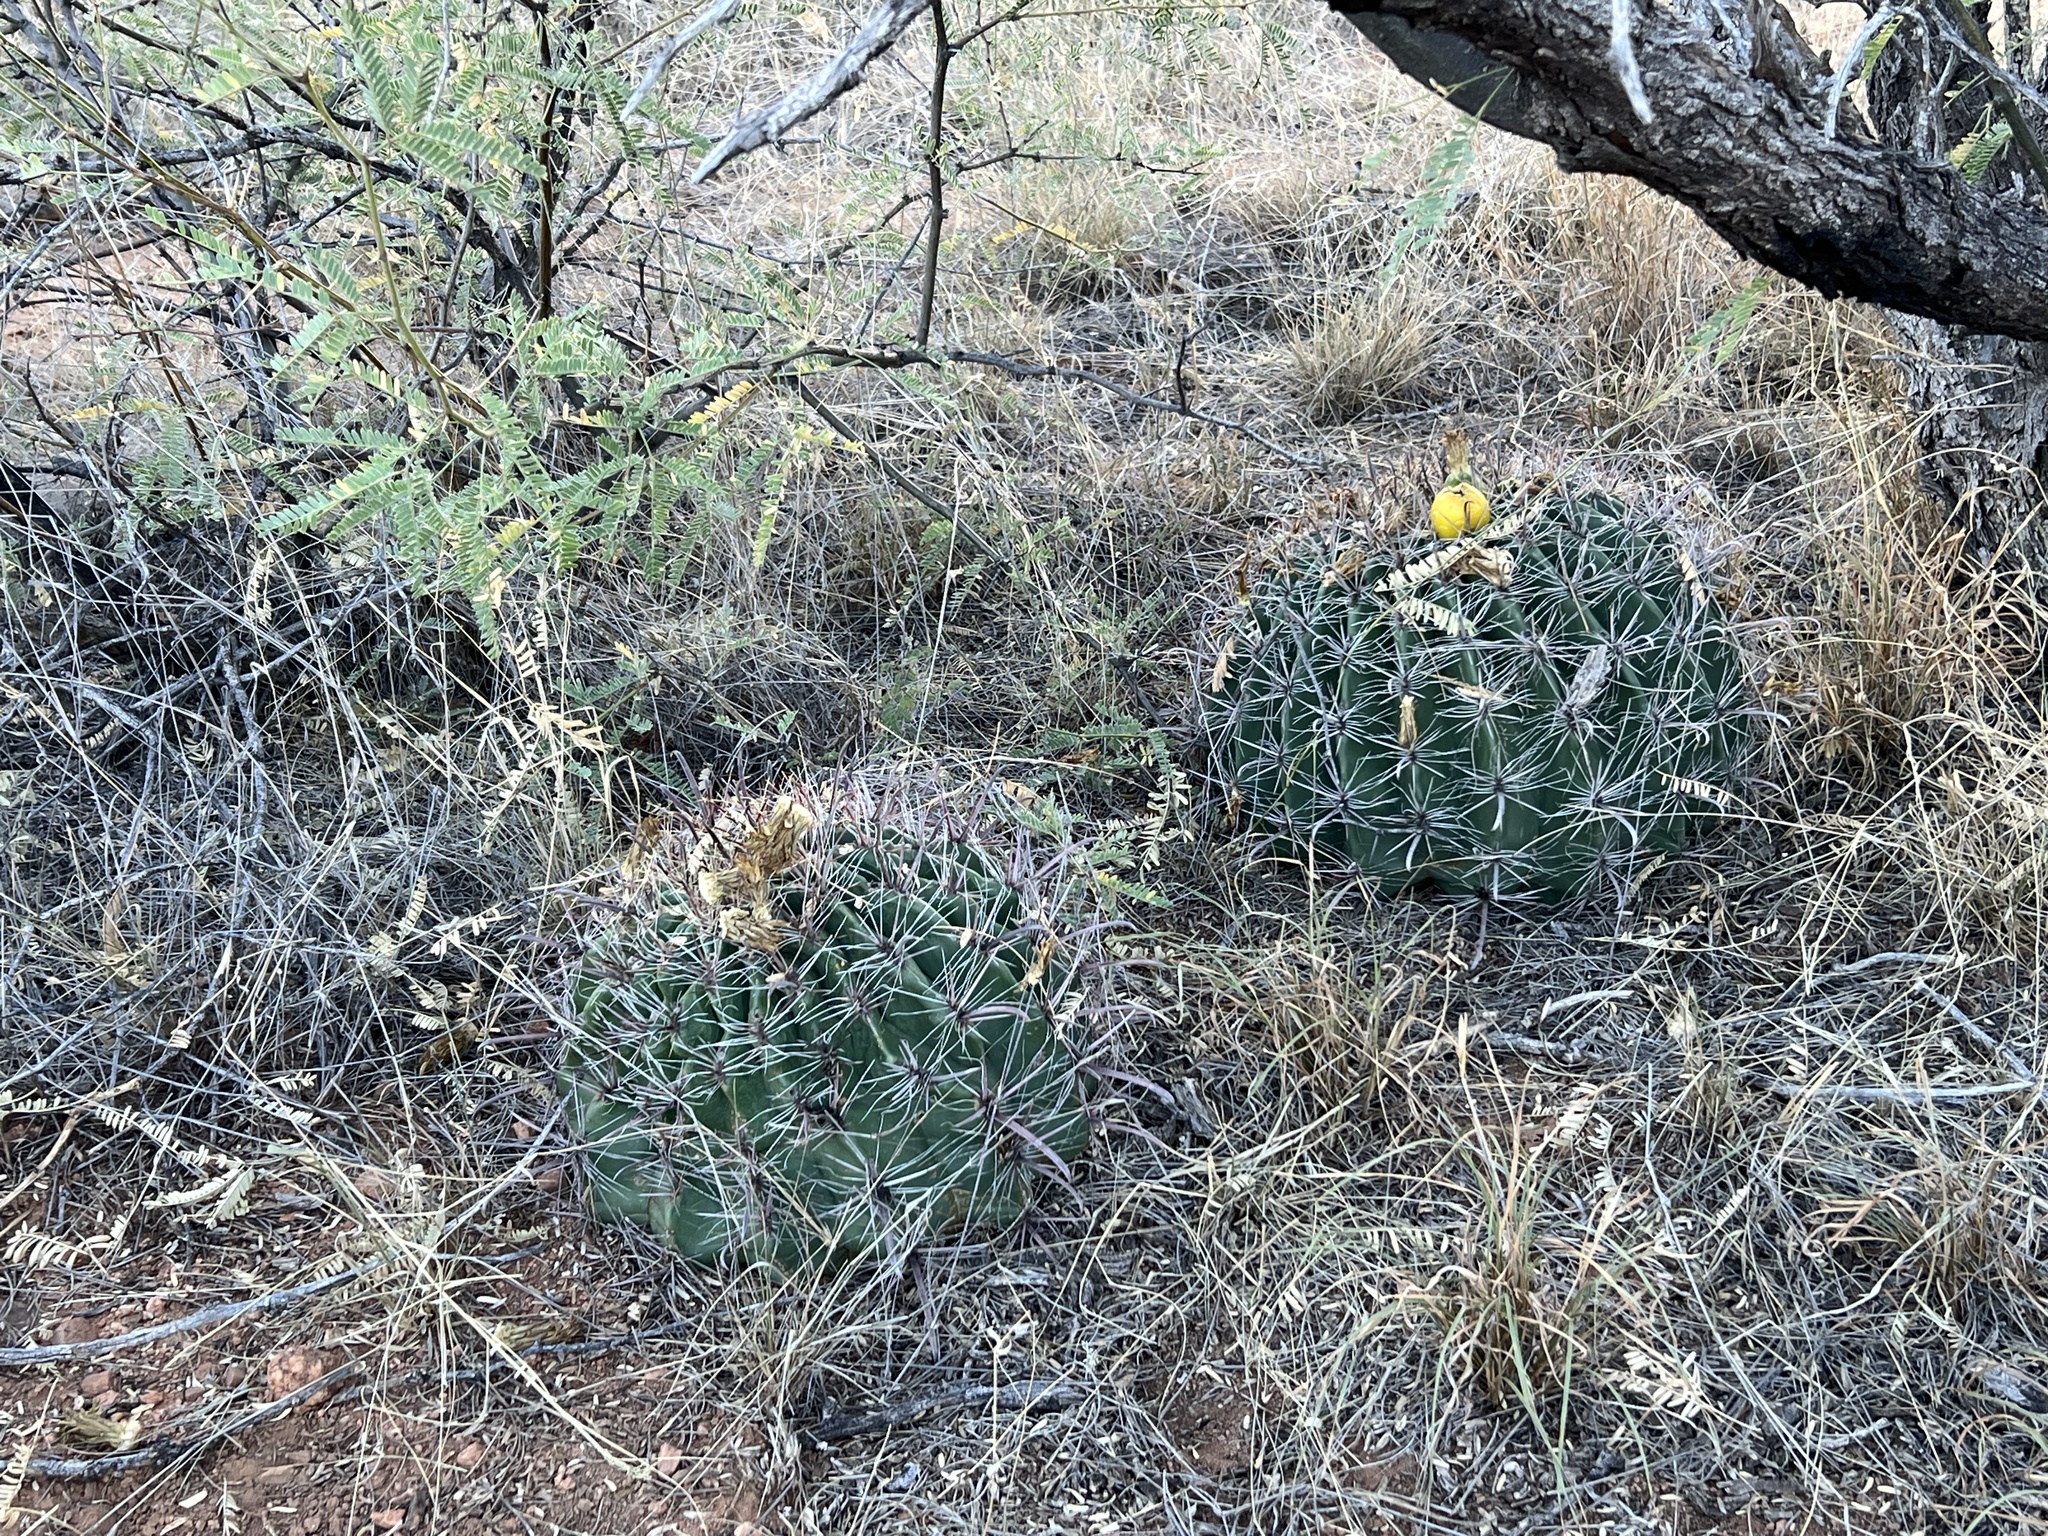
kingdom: Plantae
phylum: Tracheophyta
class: Magnoliopsida
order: Caryophyllales
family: Cactaceae
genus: Ferocactus
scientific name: Ferocactus wislizeni
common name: Candy barrel cactus
